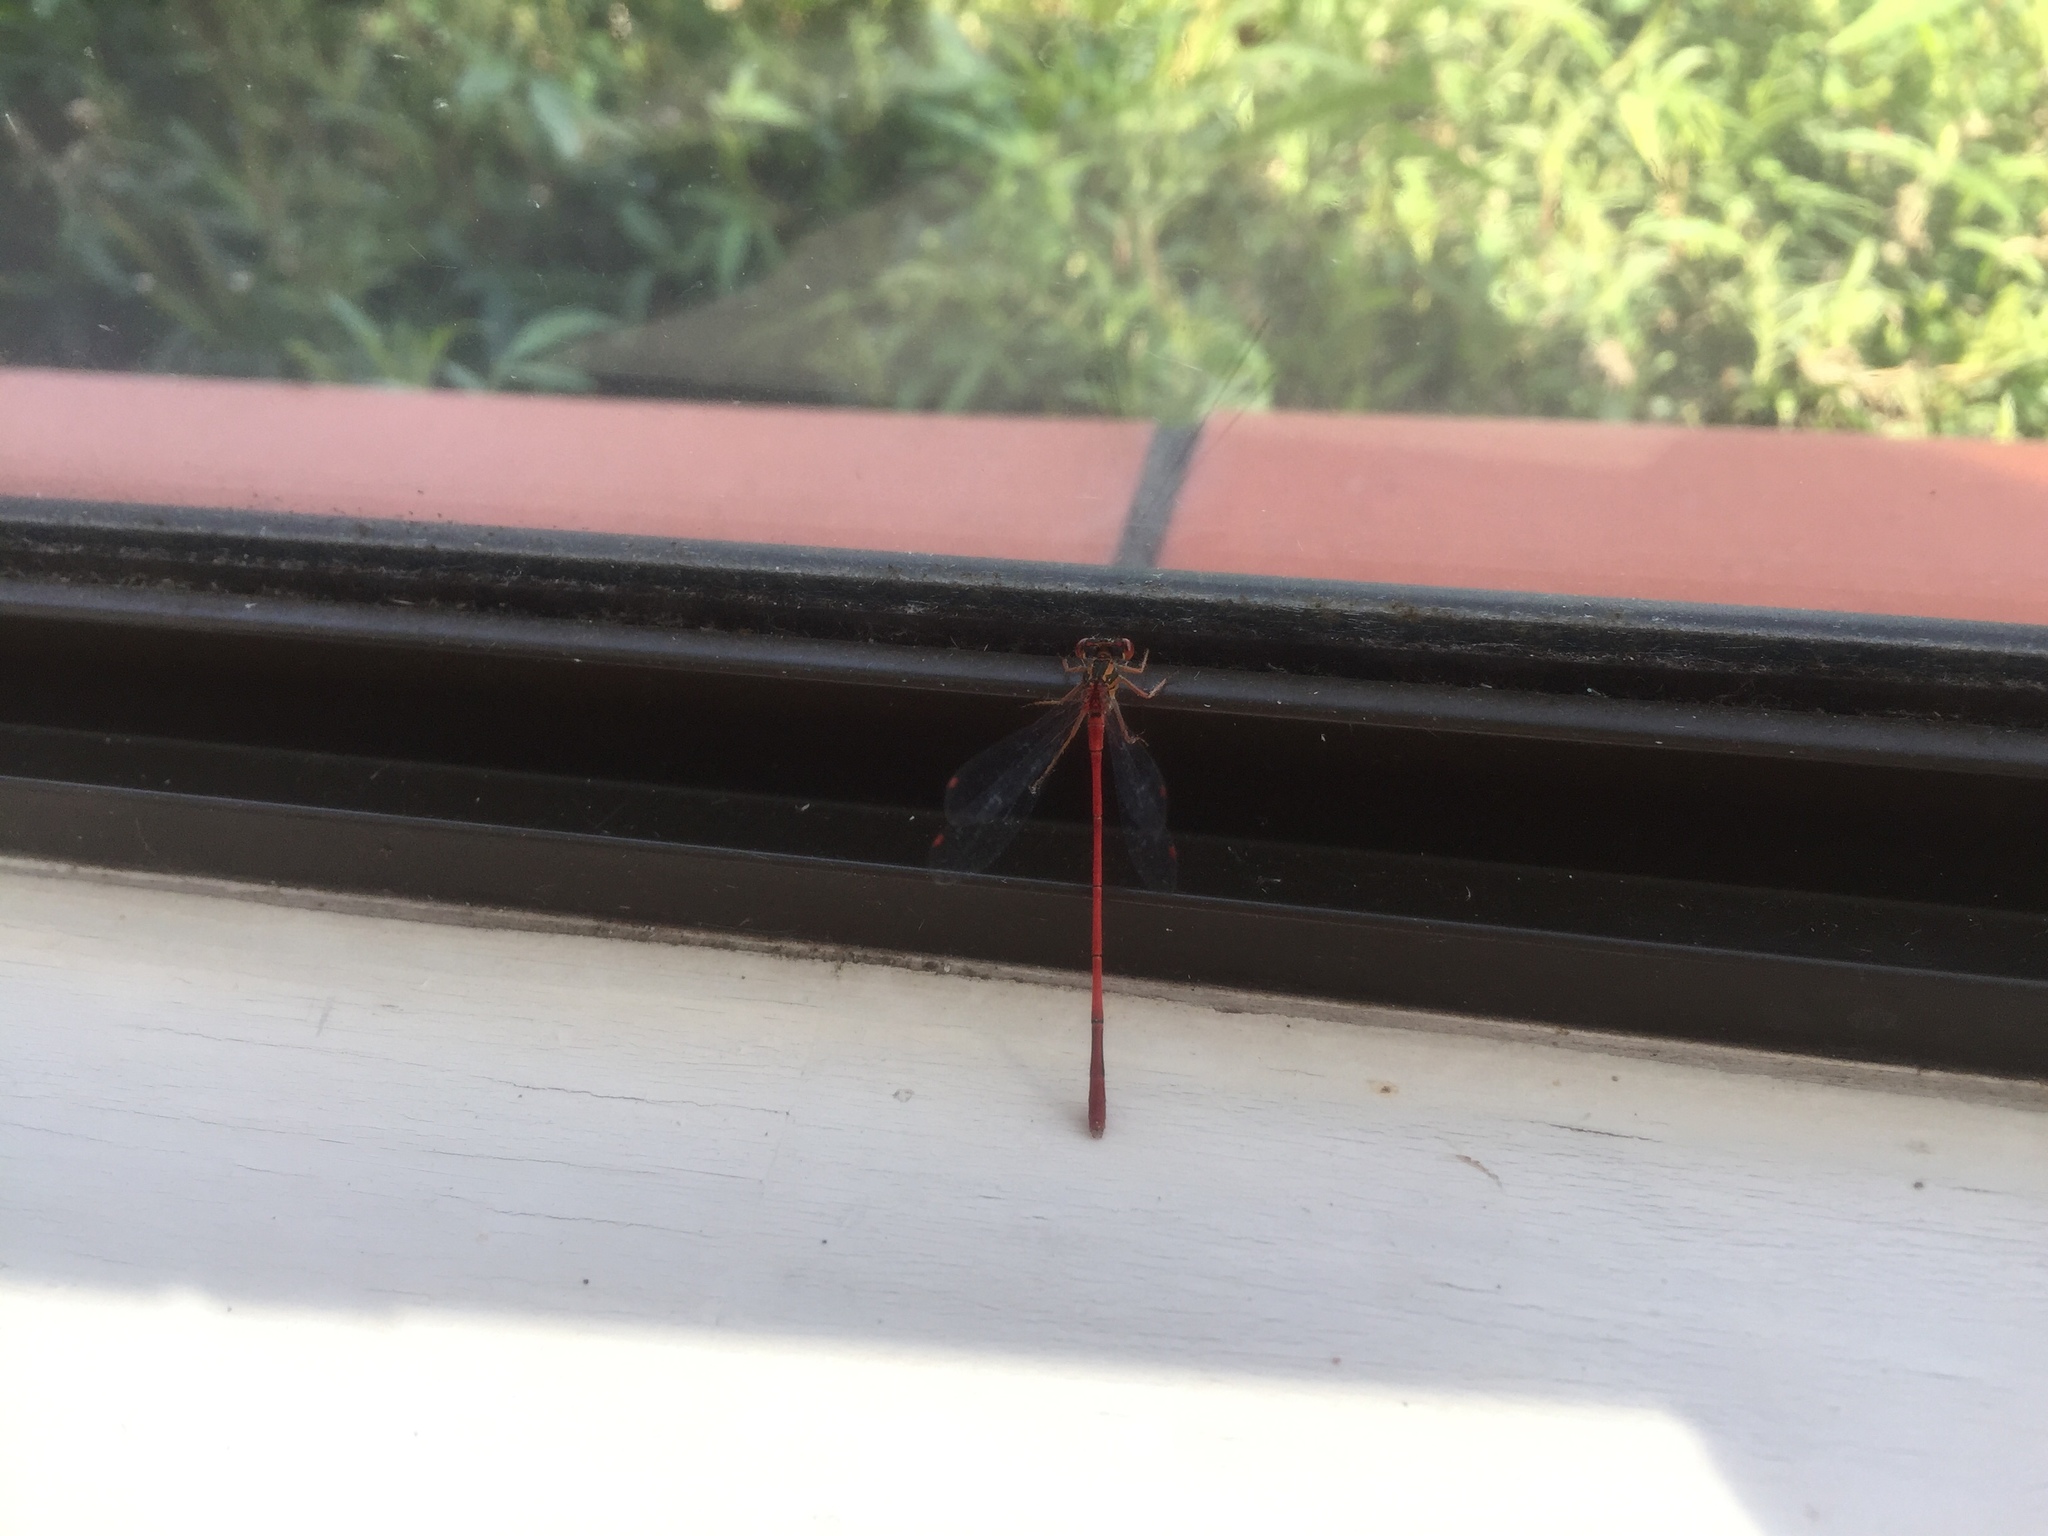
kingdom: Animalia
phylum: Arthropoda
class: Insecta
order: Odonata
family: Coenagrionidae
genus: Xanthocnemis
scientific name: Xanthocnemis zealandica
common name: Common redcoat damselfly
